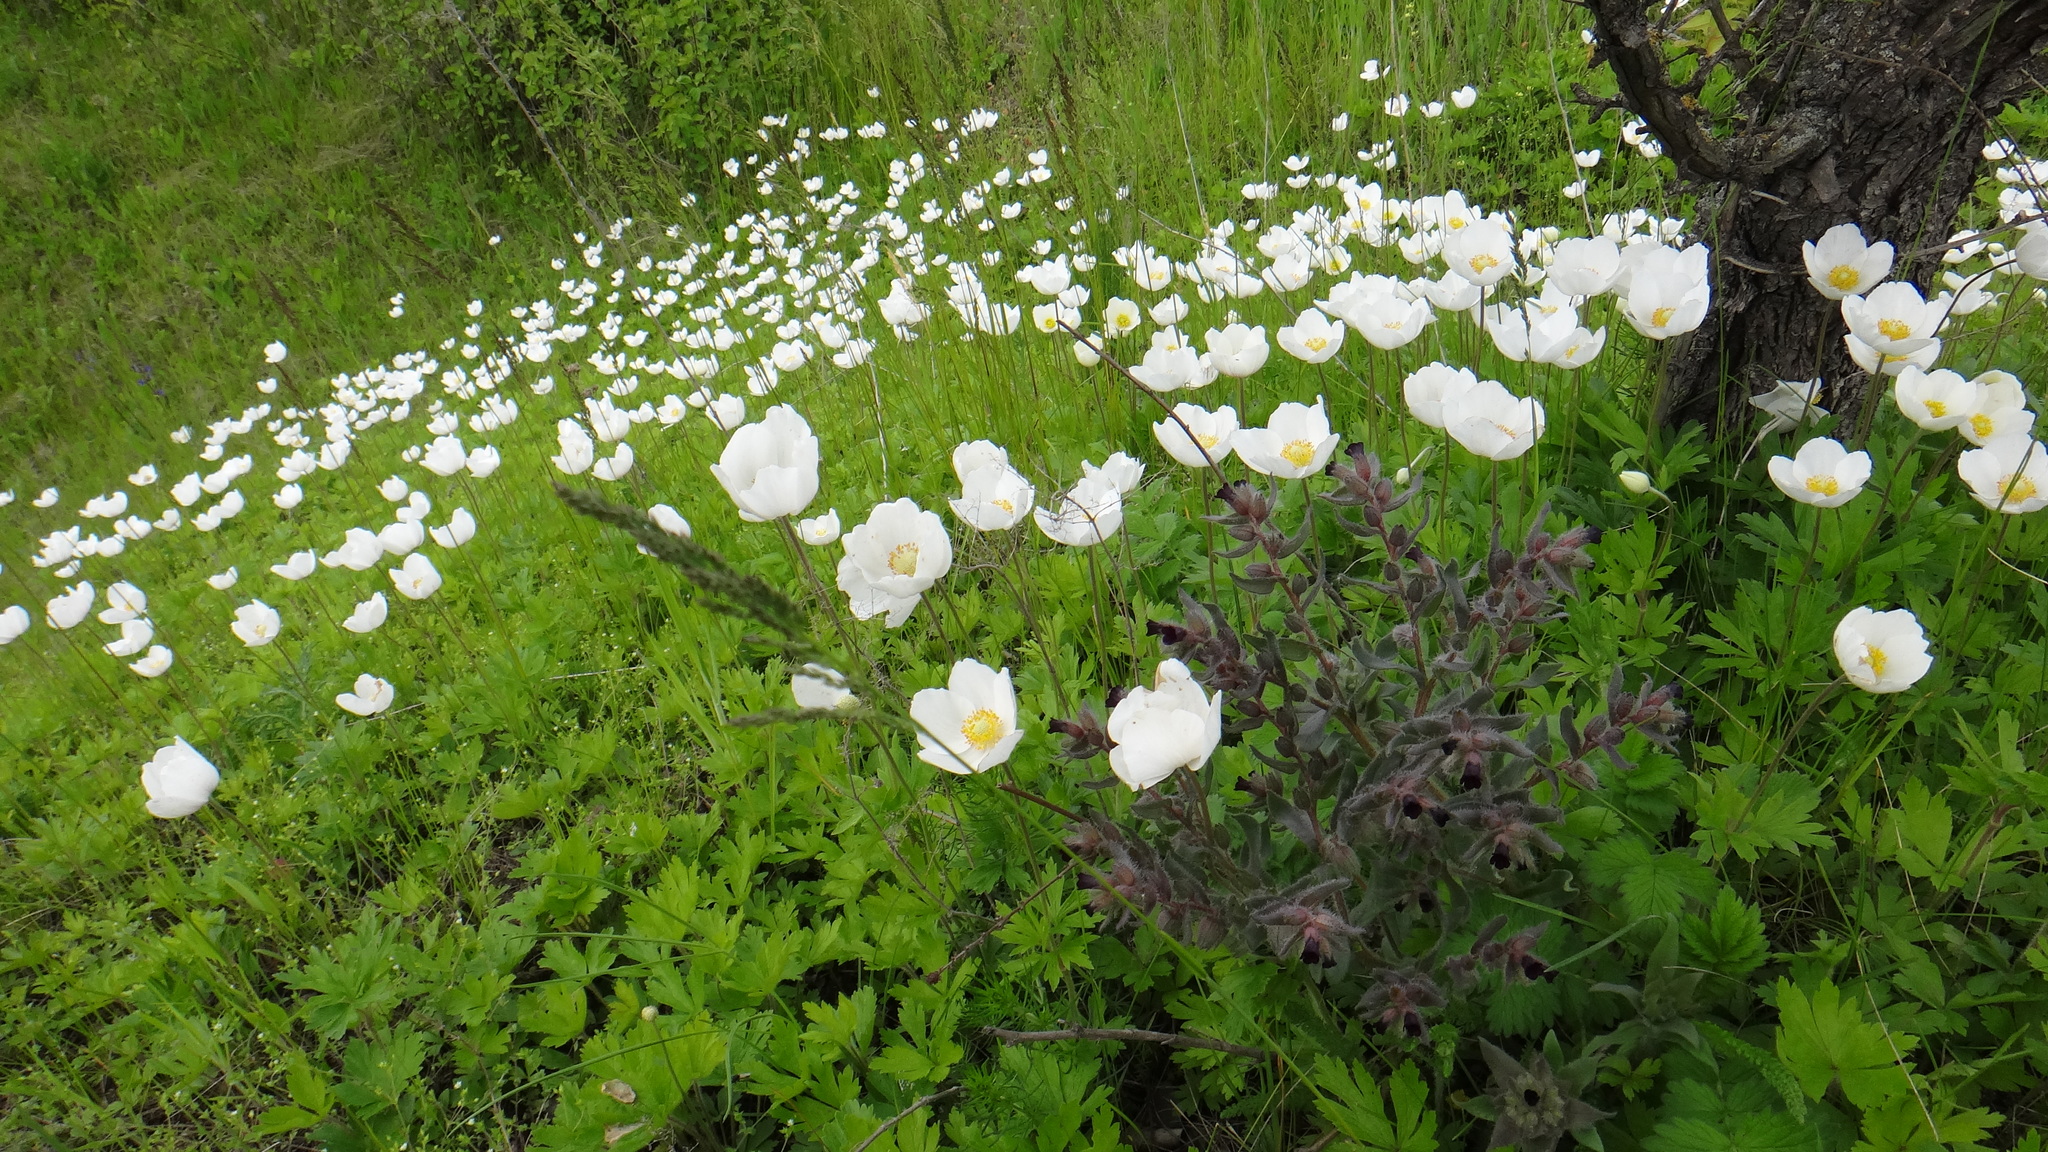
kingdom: Plantae
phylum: Tracheophyta
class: Magnoliopsida
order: Ranunculales
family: Ranunculaceae
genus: Anemone
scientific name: Anemone sylvestris
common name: Snowdrop anemone
